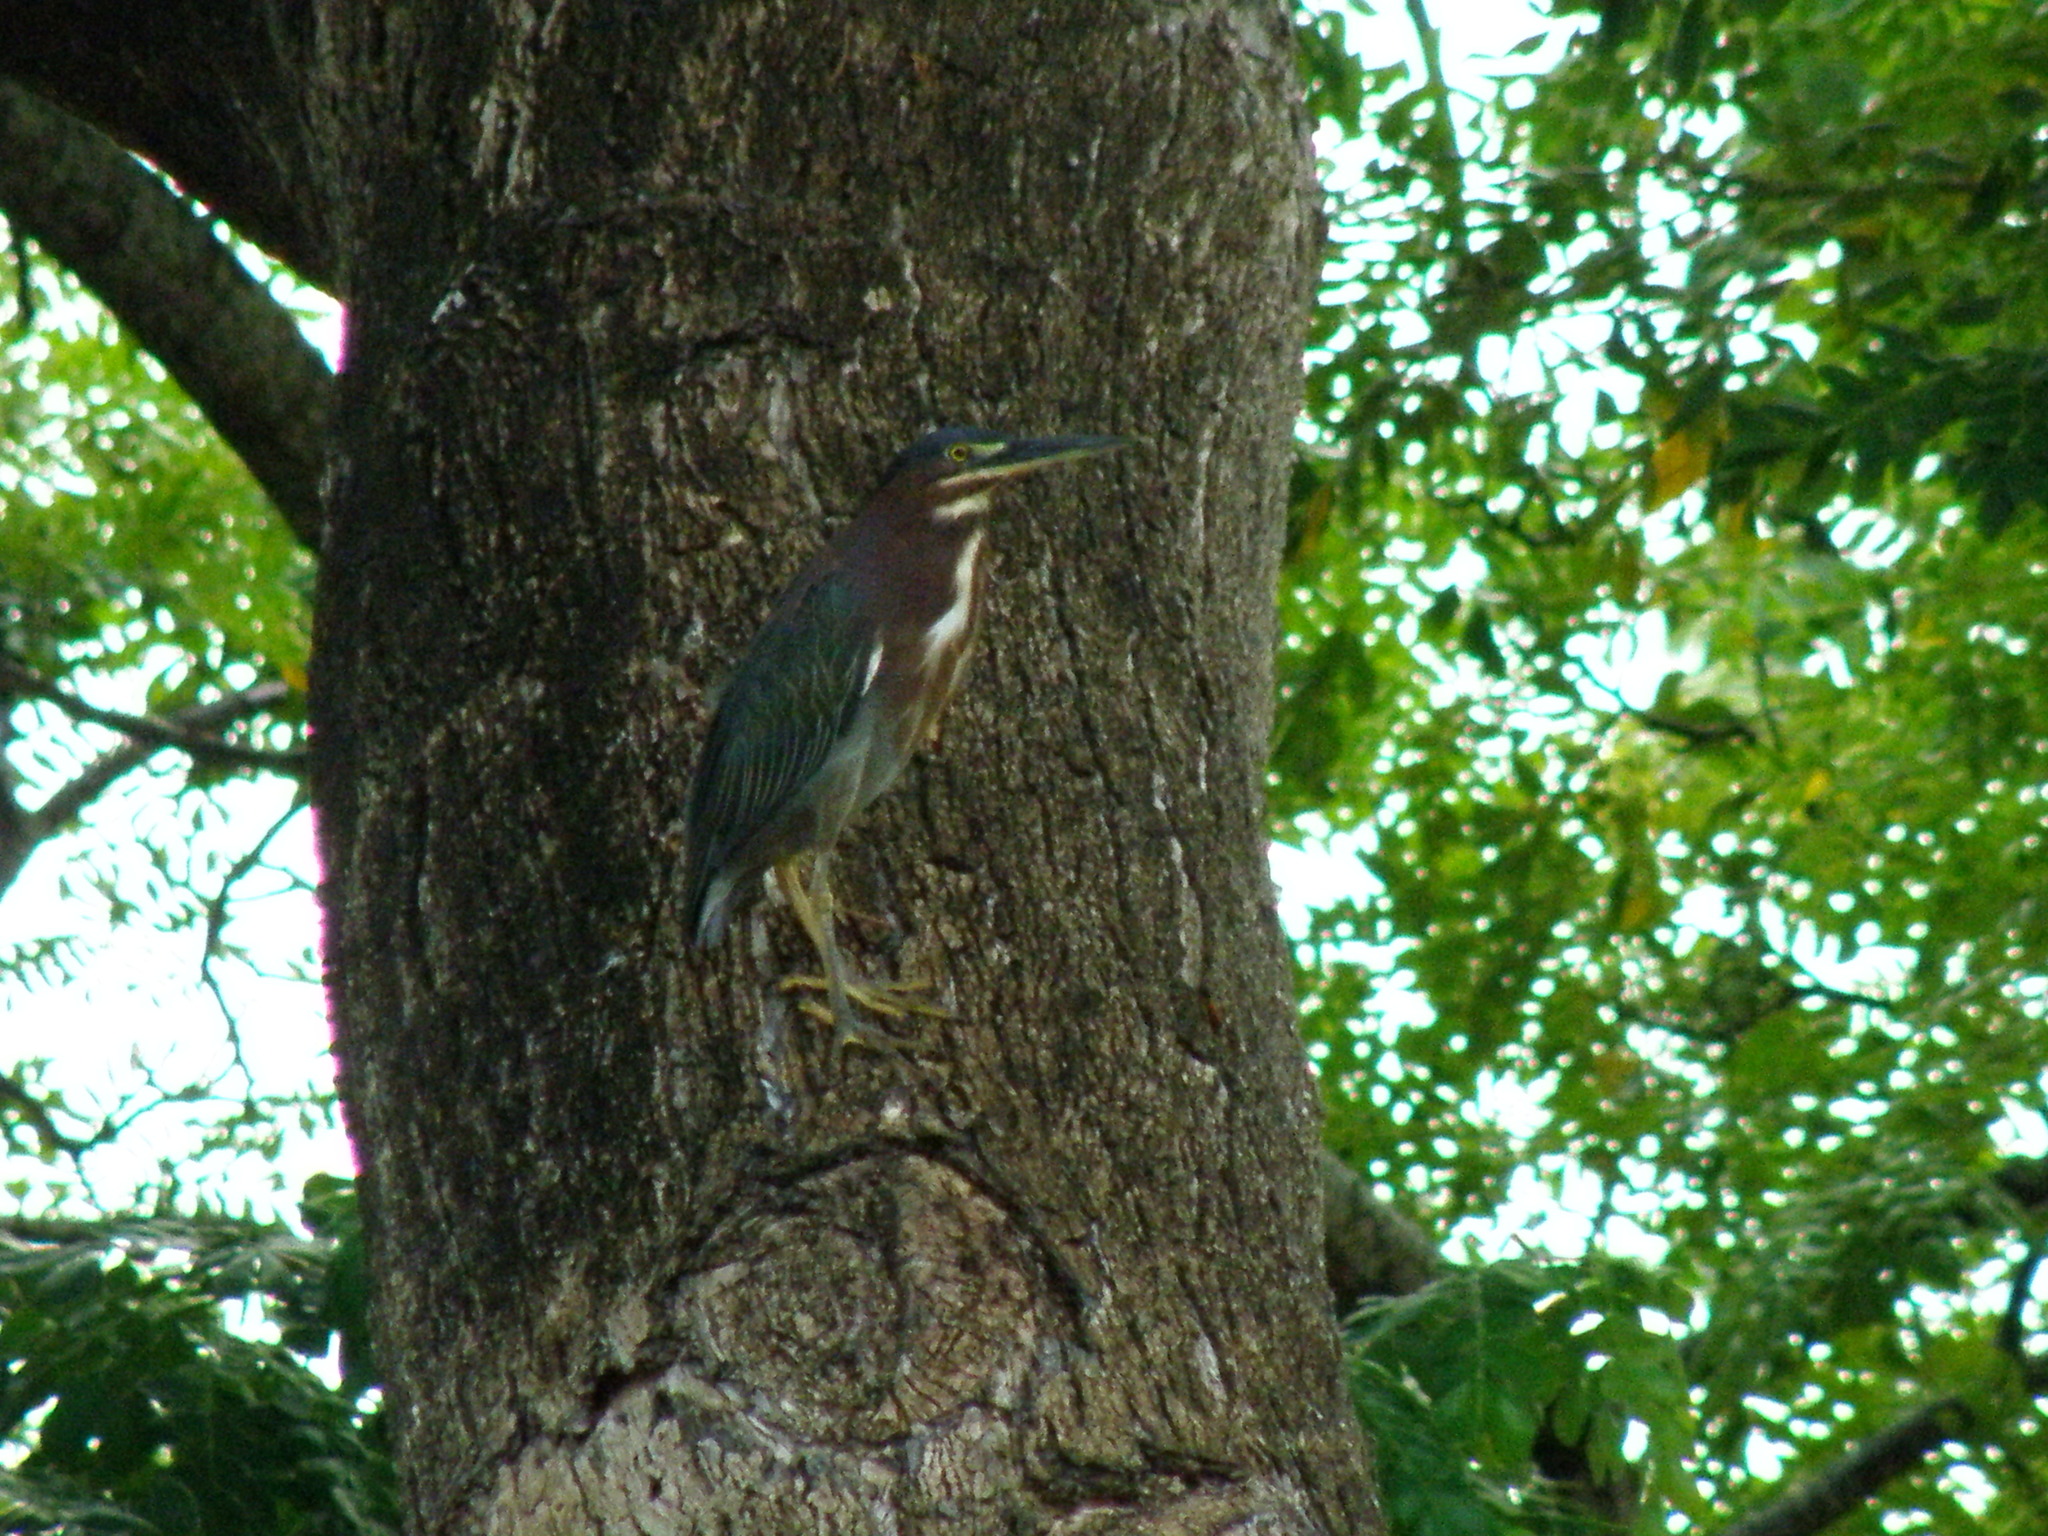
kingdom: Animalia
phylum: Chordata
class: Aves
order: Pelecaniformes
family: Ardeidae
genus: Butorides
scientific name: Butorides virescens
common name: Green heron
